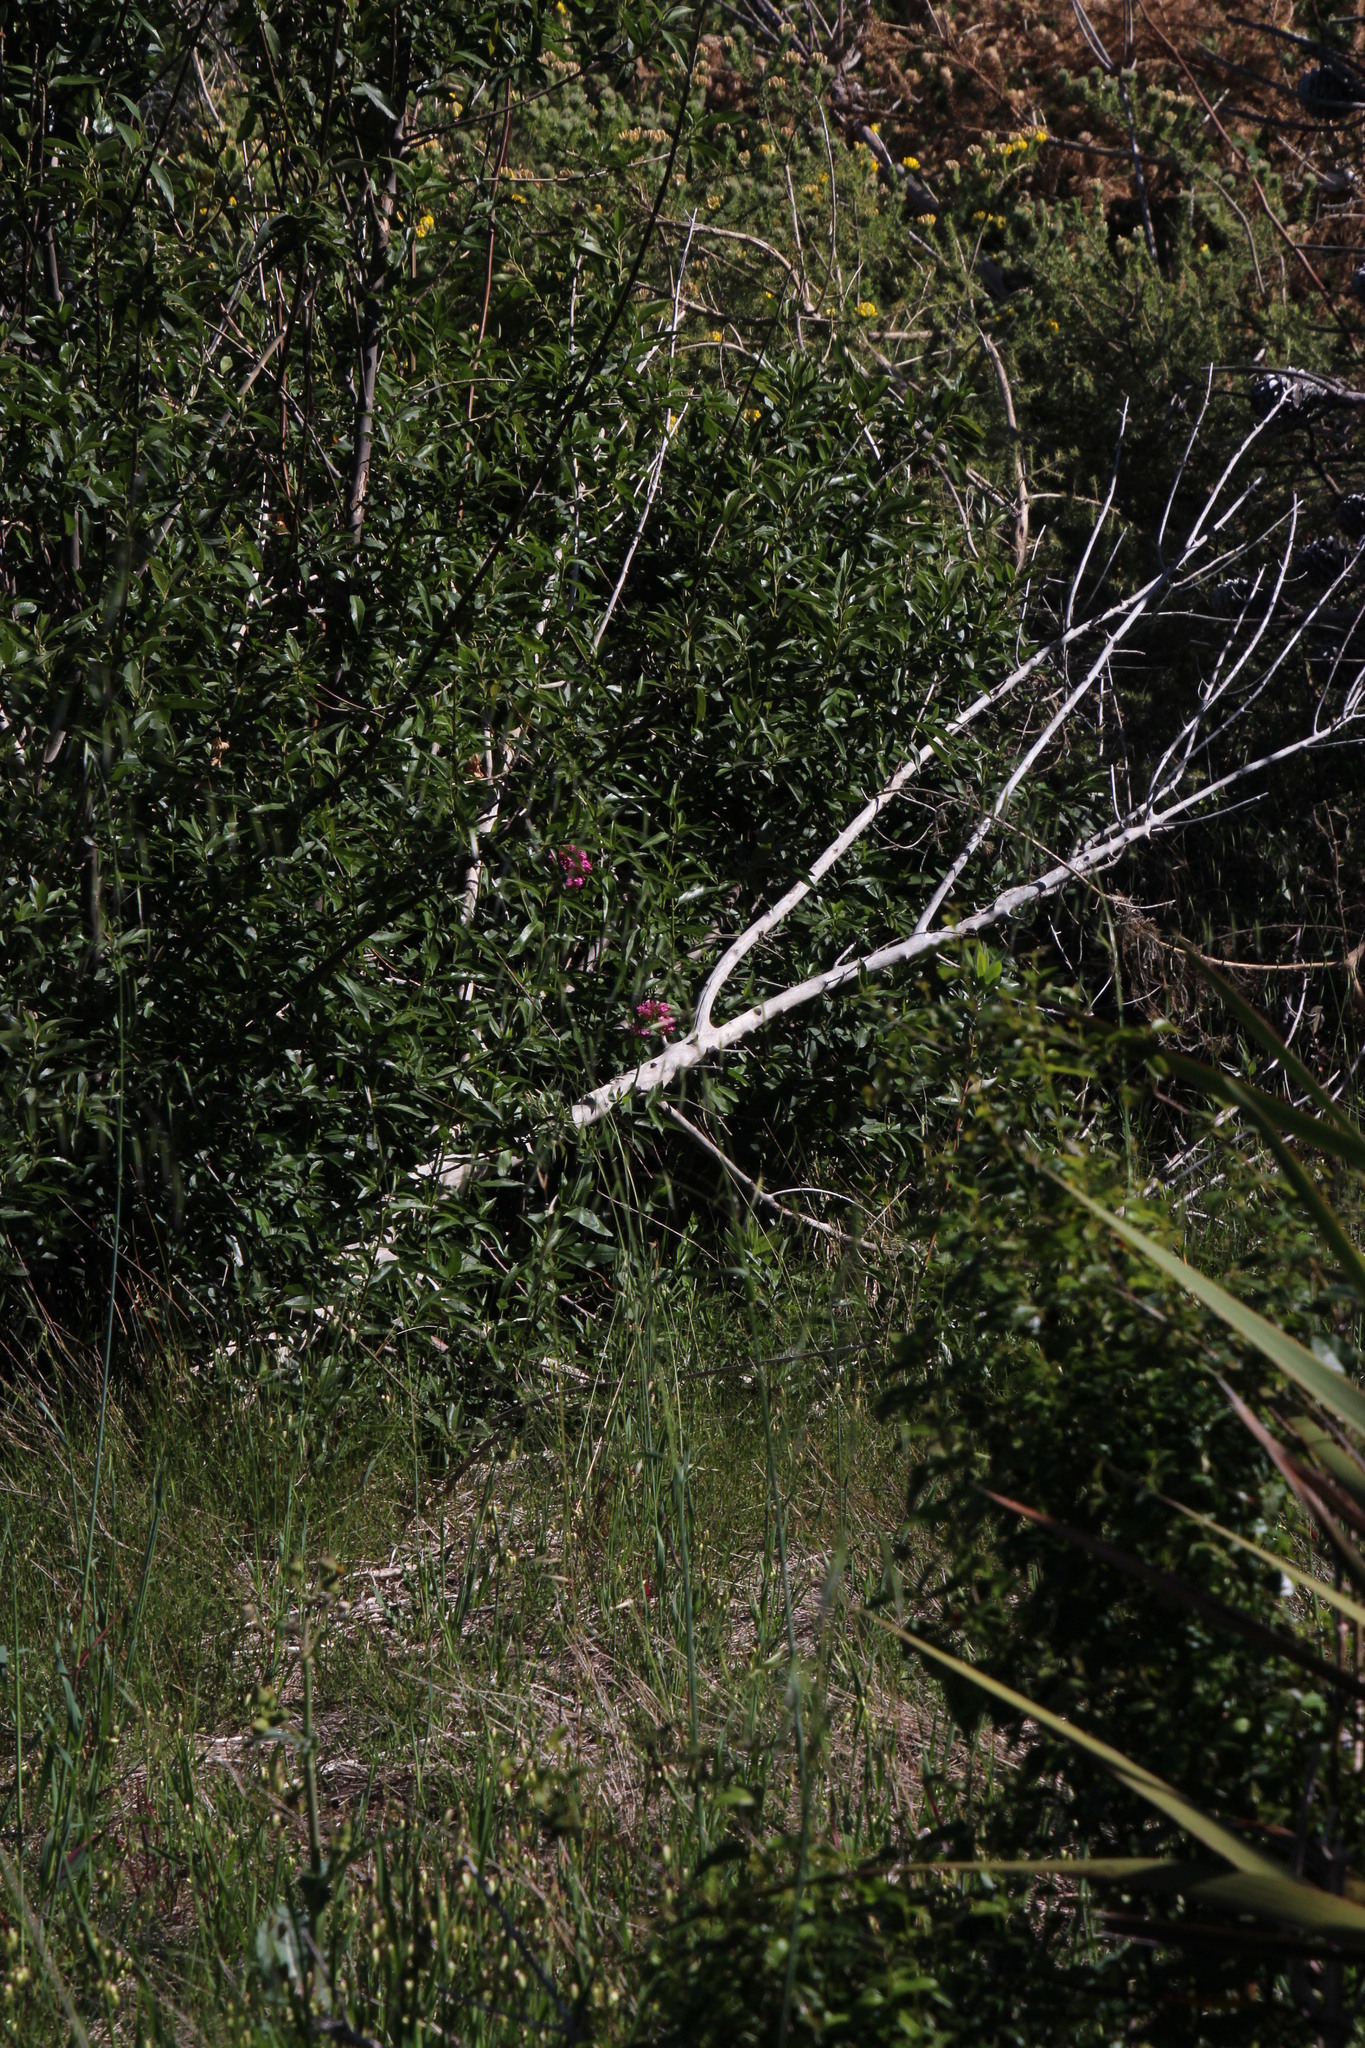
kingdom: Plantae
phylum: Tracheophyta
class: Magnoliopsida
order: Dipsacales
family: Caprifoliaceae
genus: Centranthus
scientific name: Centranthus ruber
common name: Red valerian
